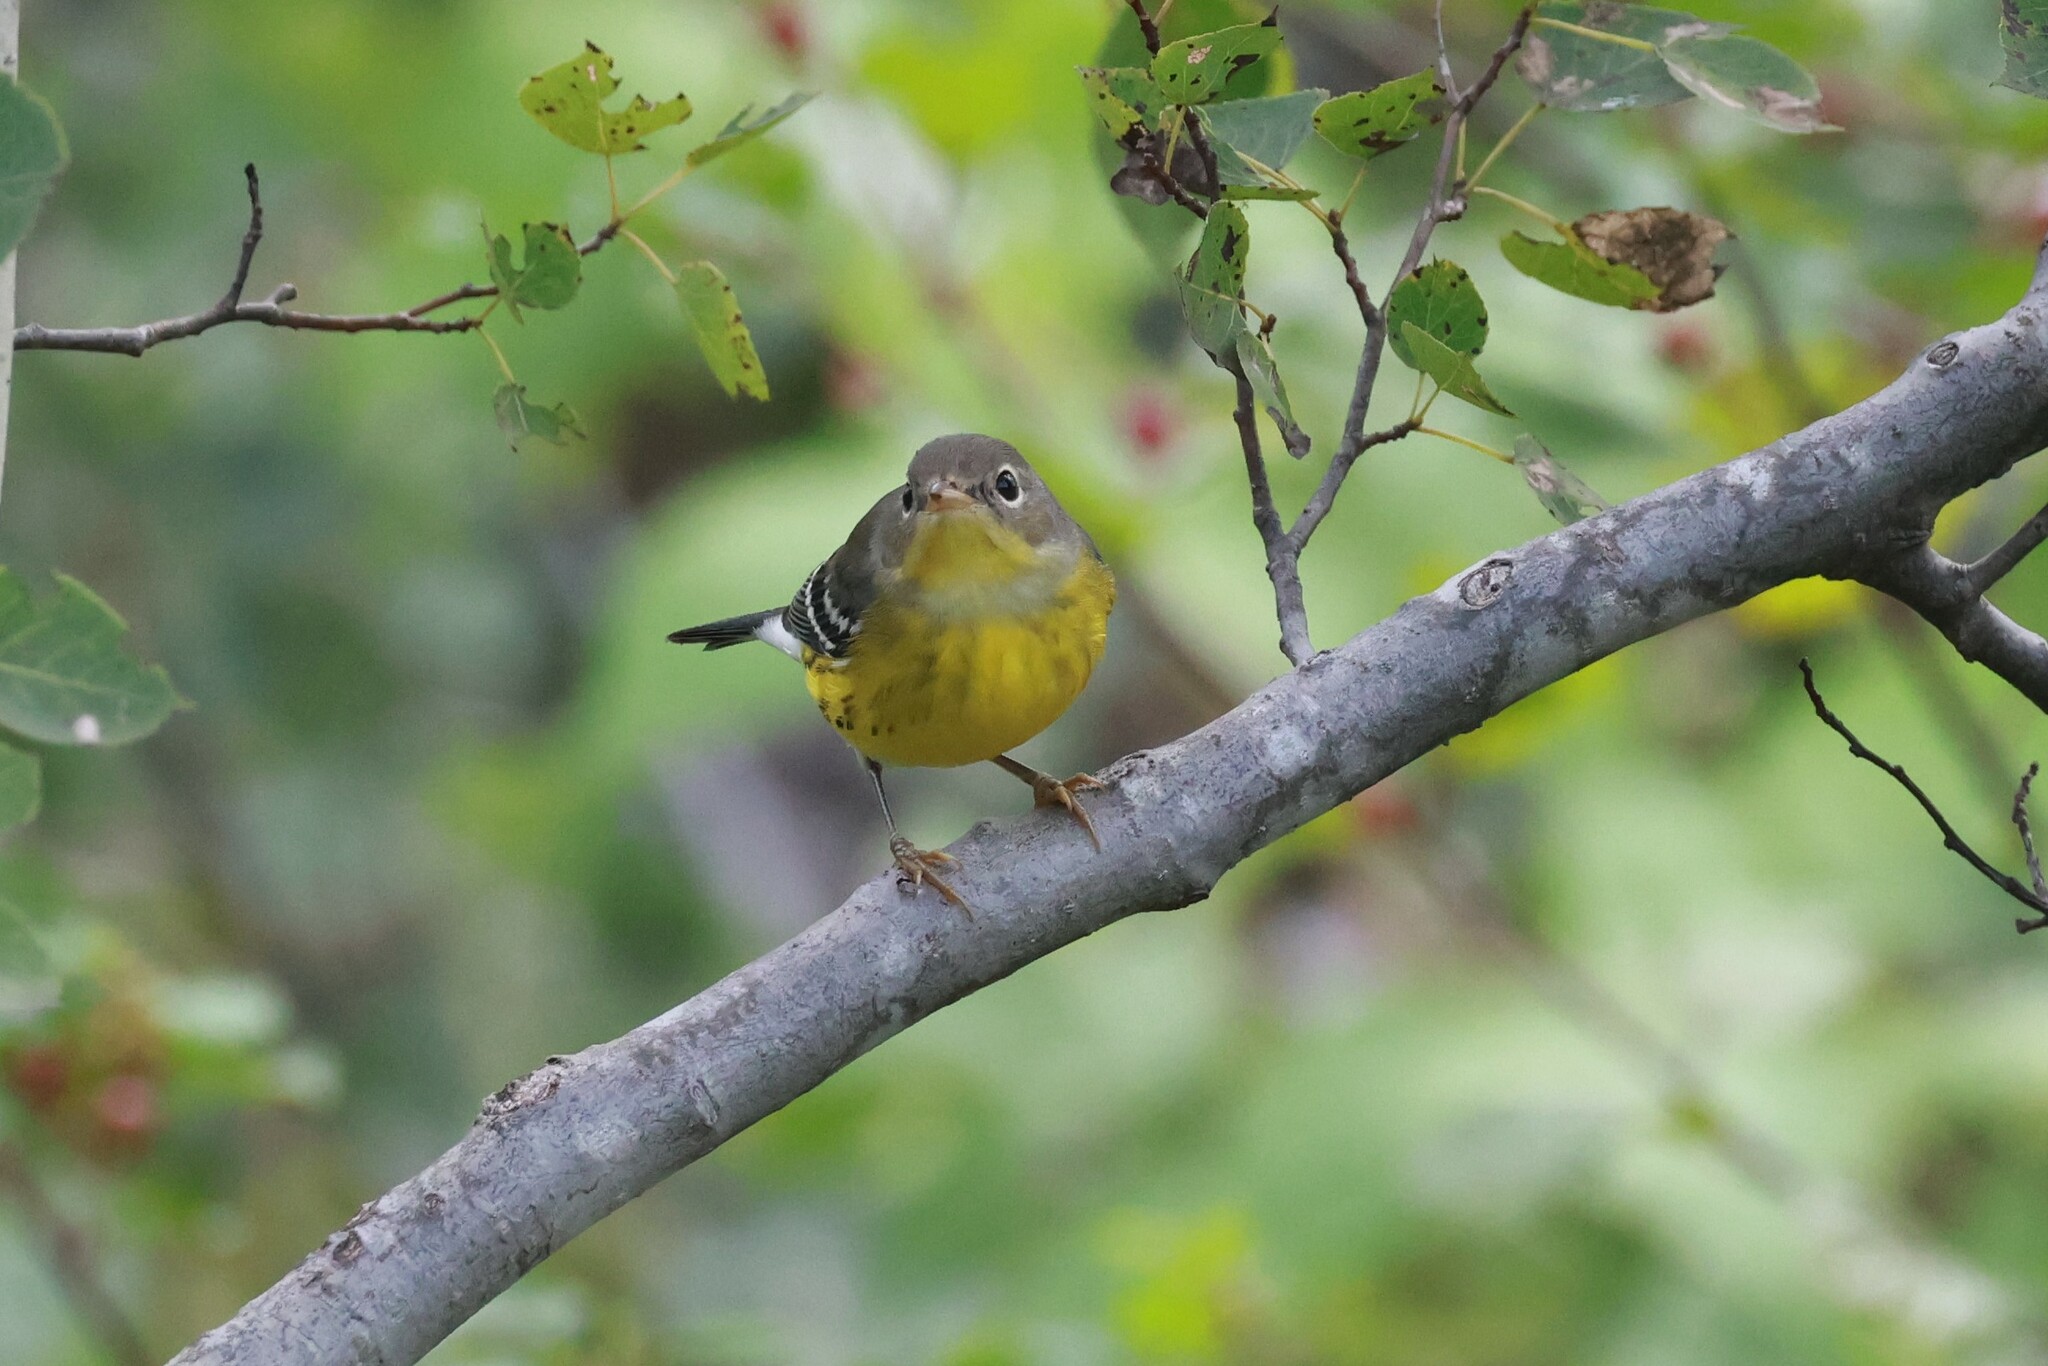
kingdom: Animalia
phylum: Chordata
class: Aves
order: Passeriformes
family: Parulidae
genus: Setophaga
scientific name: Setophaga magnolia
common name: Magnolia warbler
